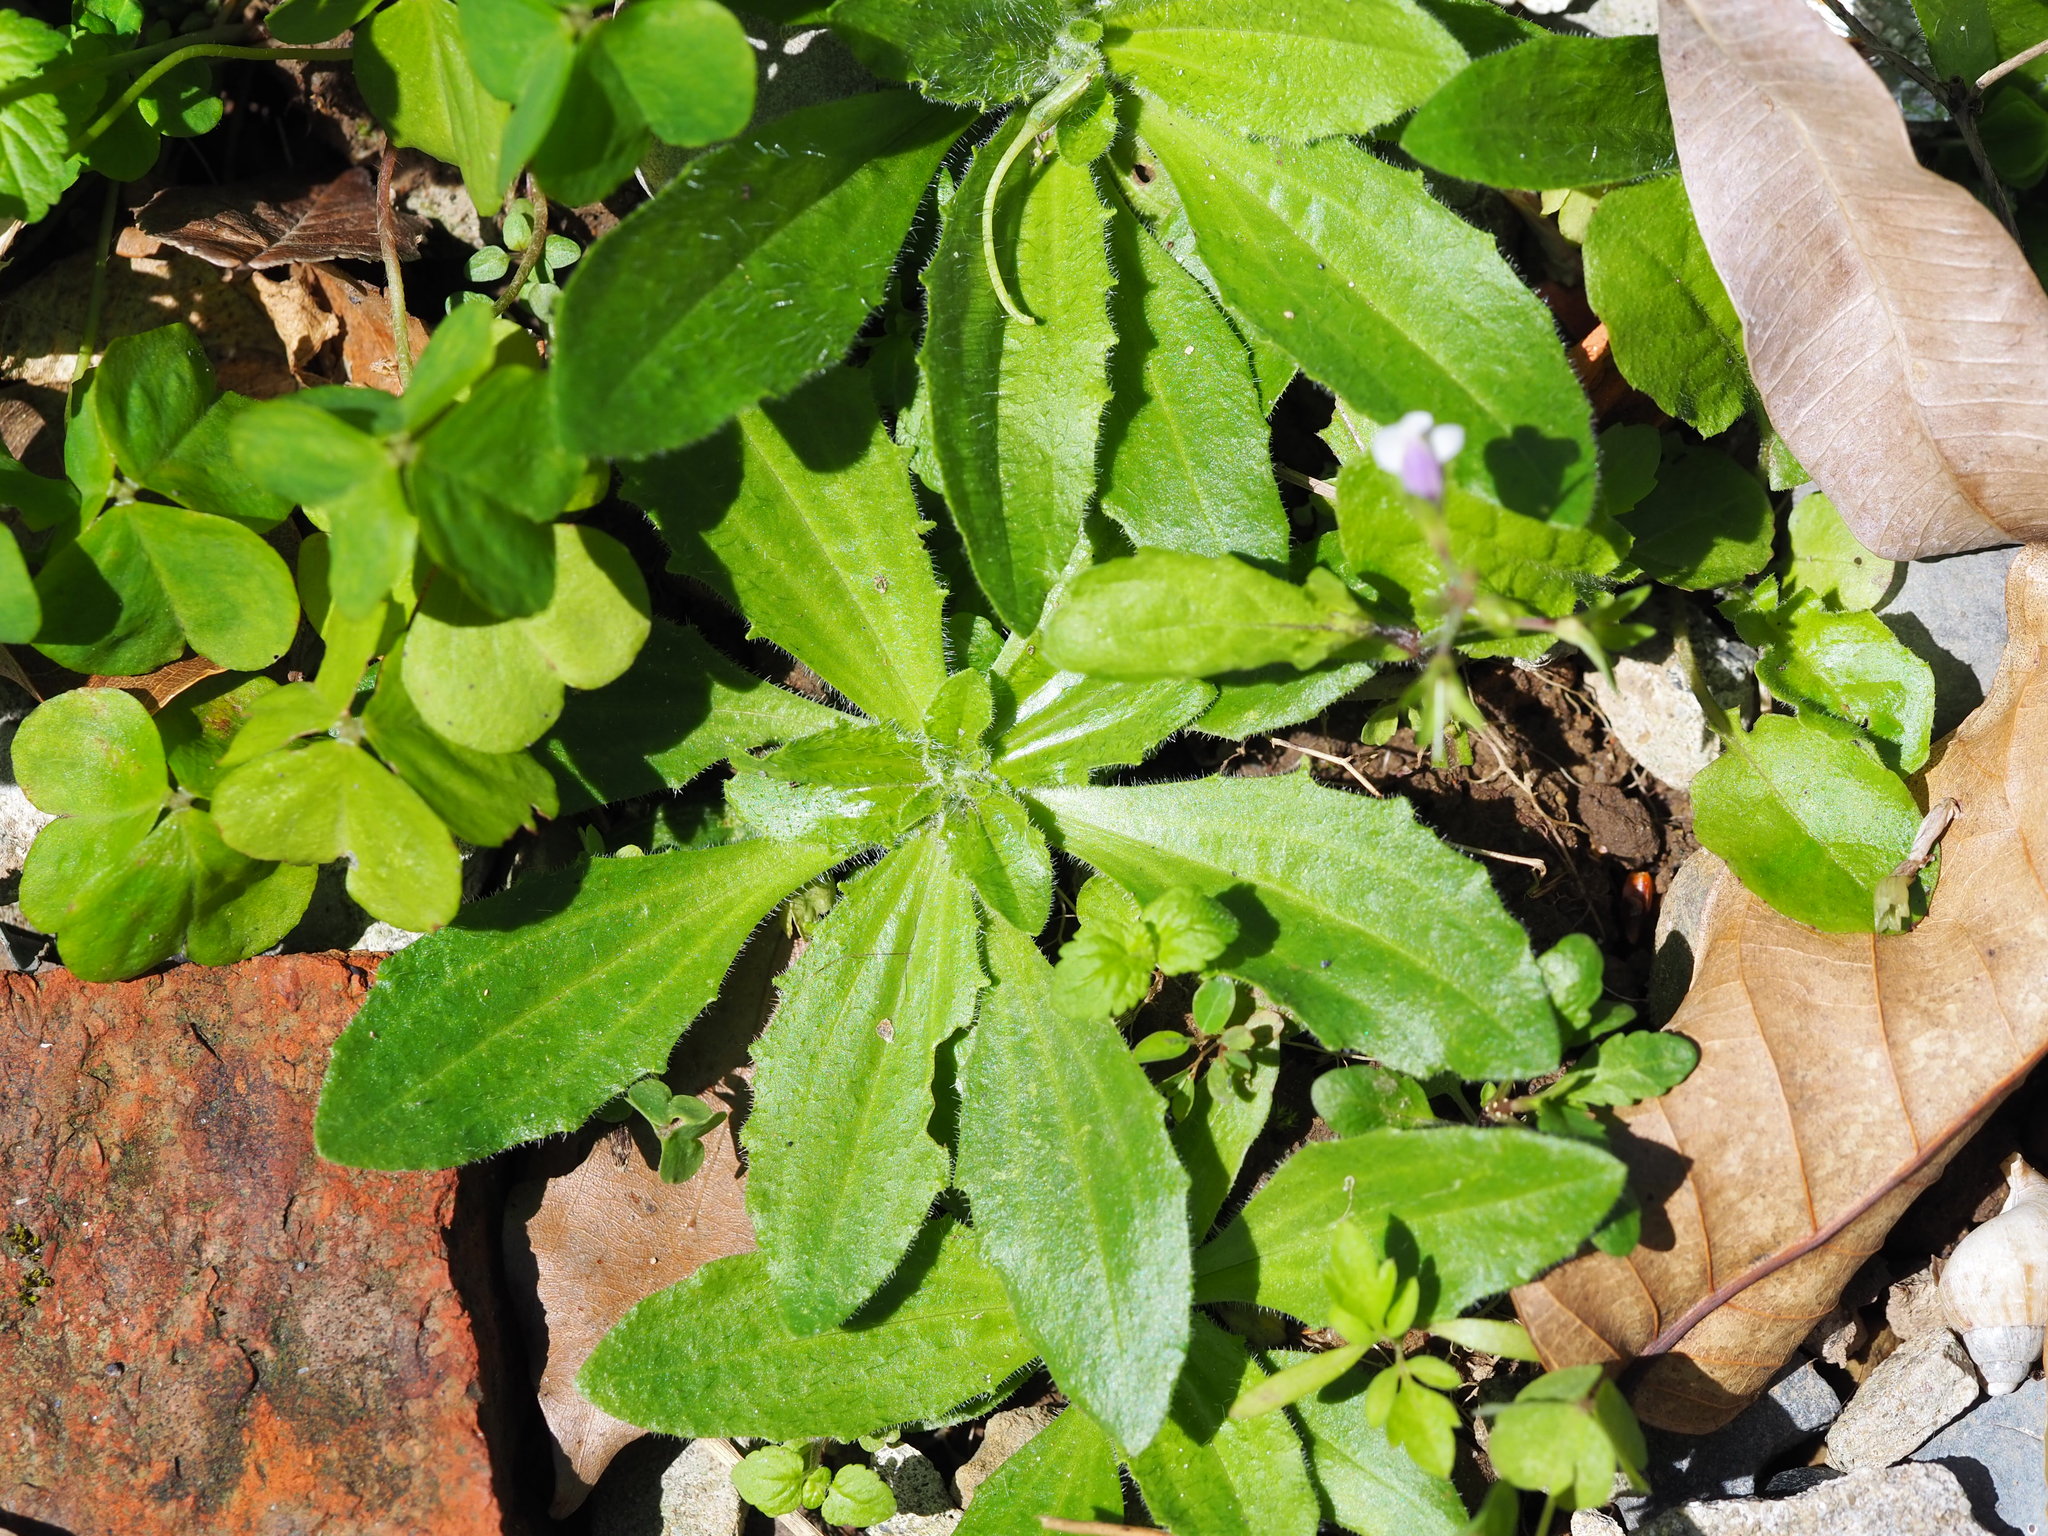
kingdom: Plantae
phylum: Tracheophyta
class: Magnoliopsida
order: Lamiales
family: Plantaginaceae
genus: Plantago
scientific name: Plantago virginica
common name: Hoary plantain
